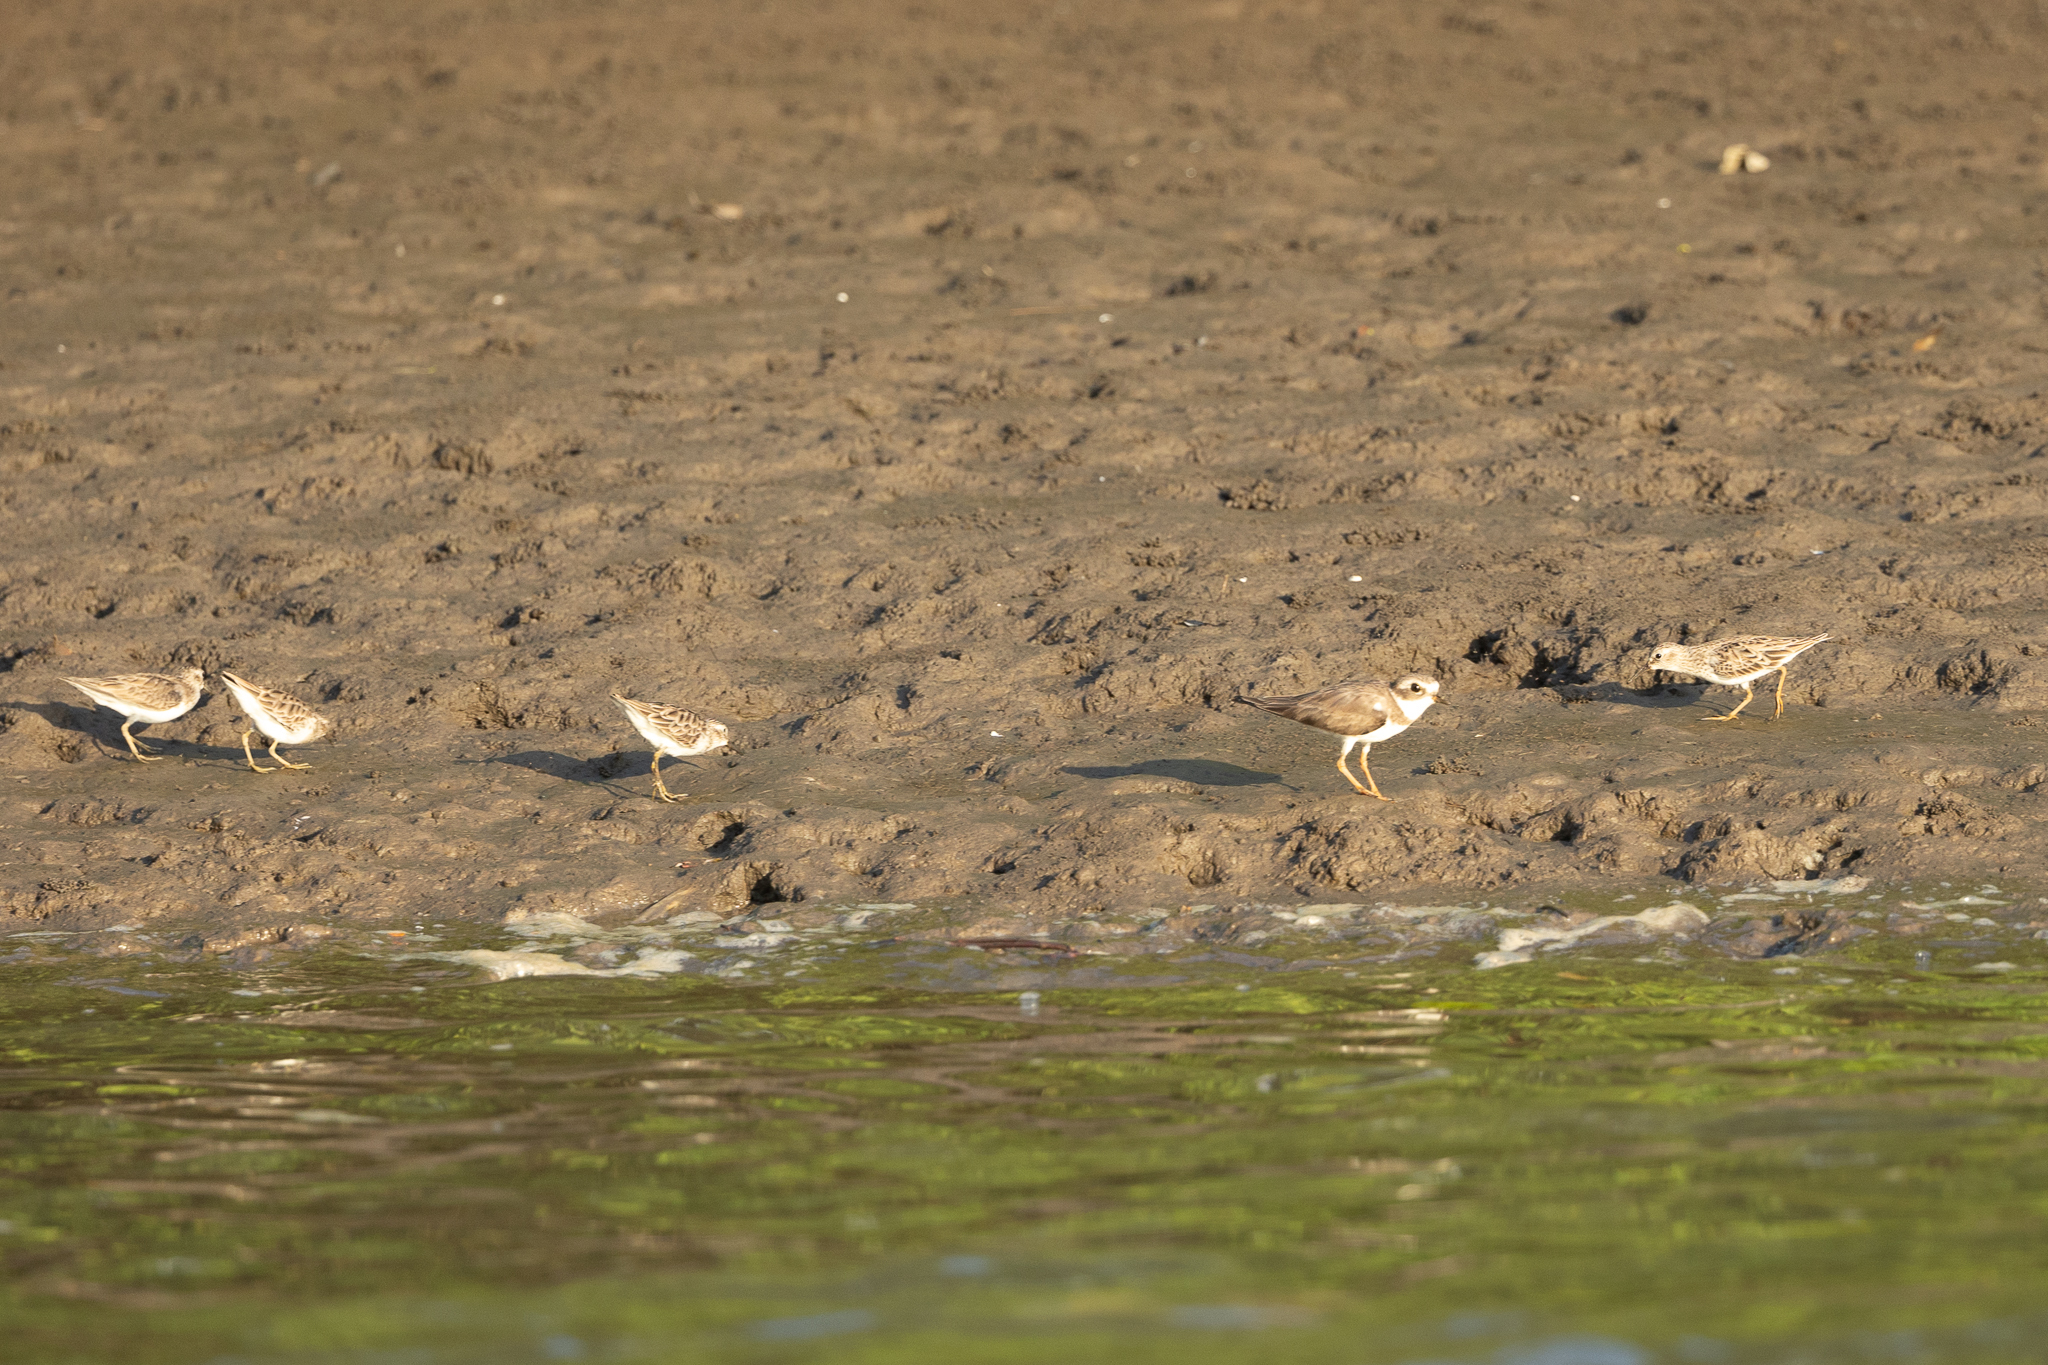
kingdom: Animalia
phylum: Chordata
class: Aves
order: Charadriiformes
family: Scolopacidae
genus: Calidris
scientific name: Calidris minutilla
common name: Least sandpiper
